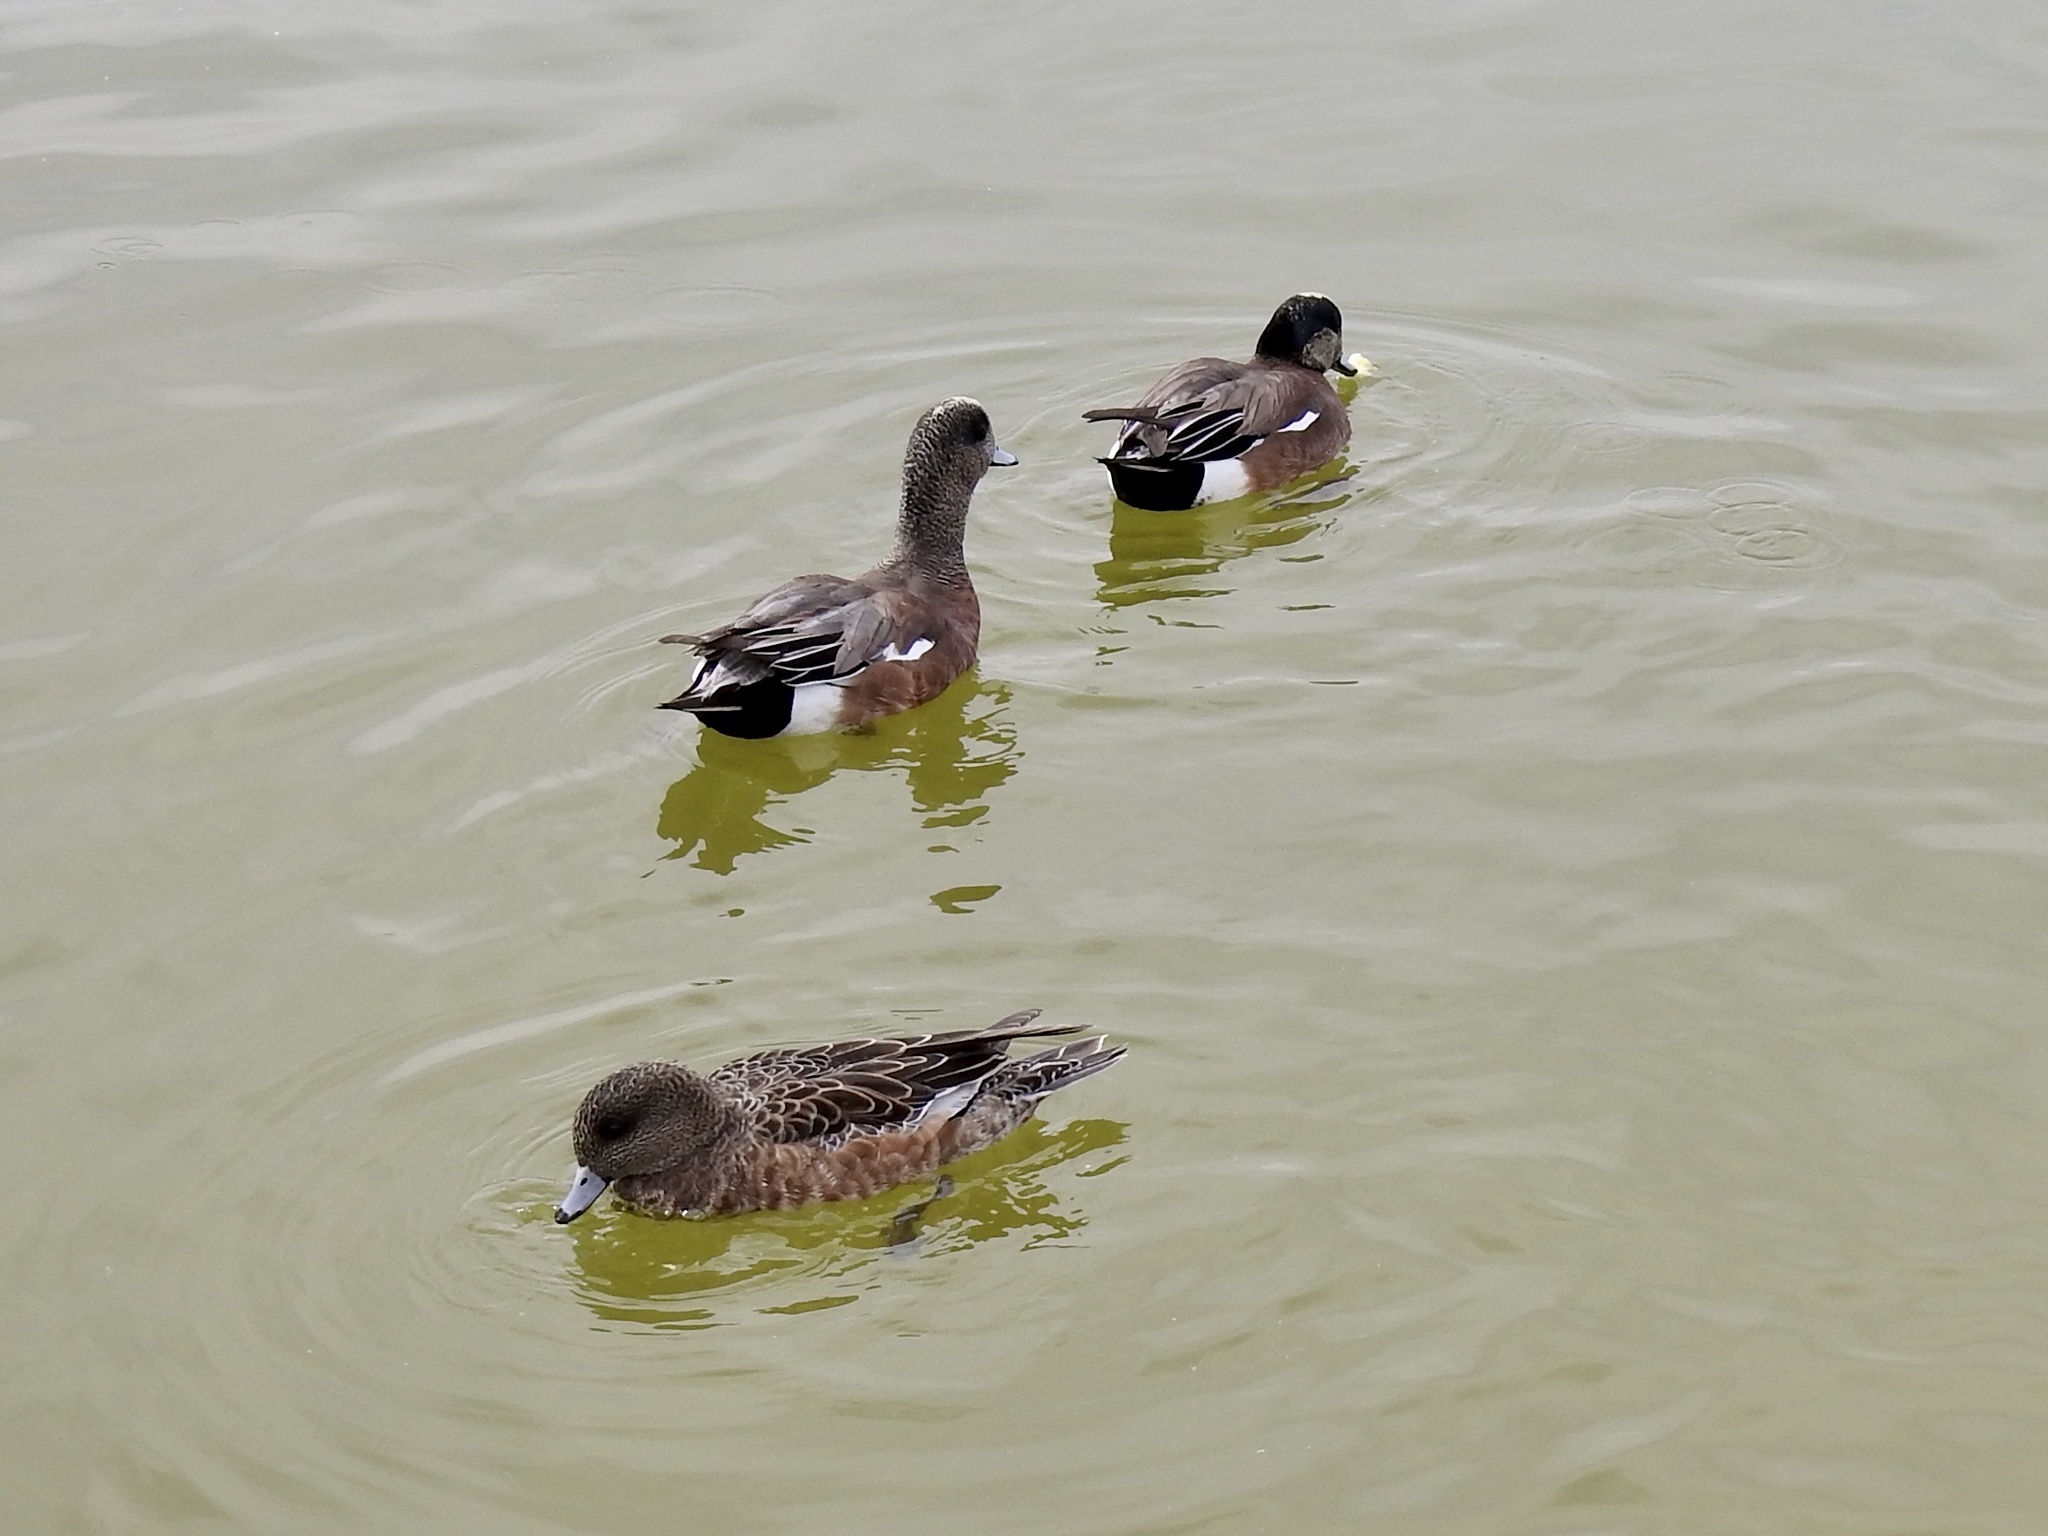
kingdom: Animalia
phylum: Chordata
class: Aves
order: Anseriformes
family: Anatidae
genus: Mareca
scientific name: Mareca americana
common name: American wigeon
